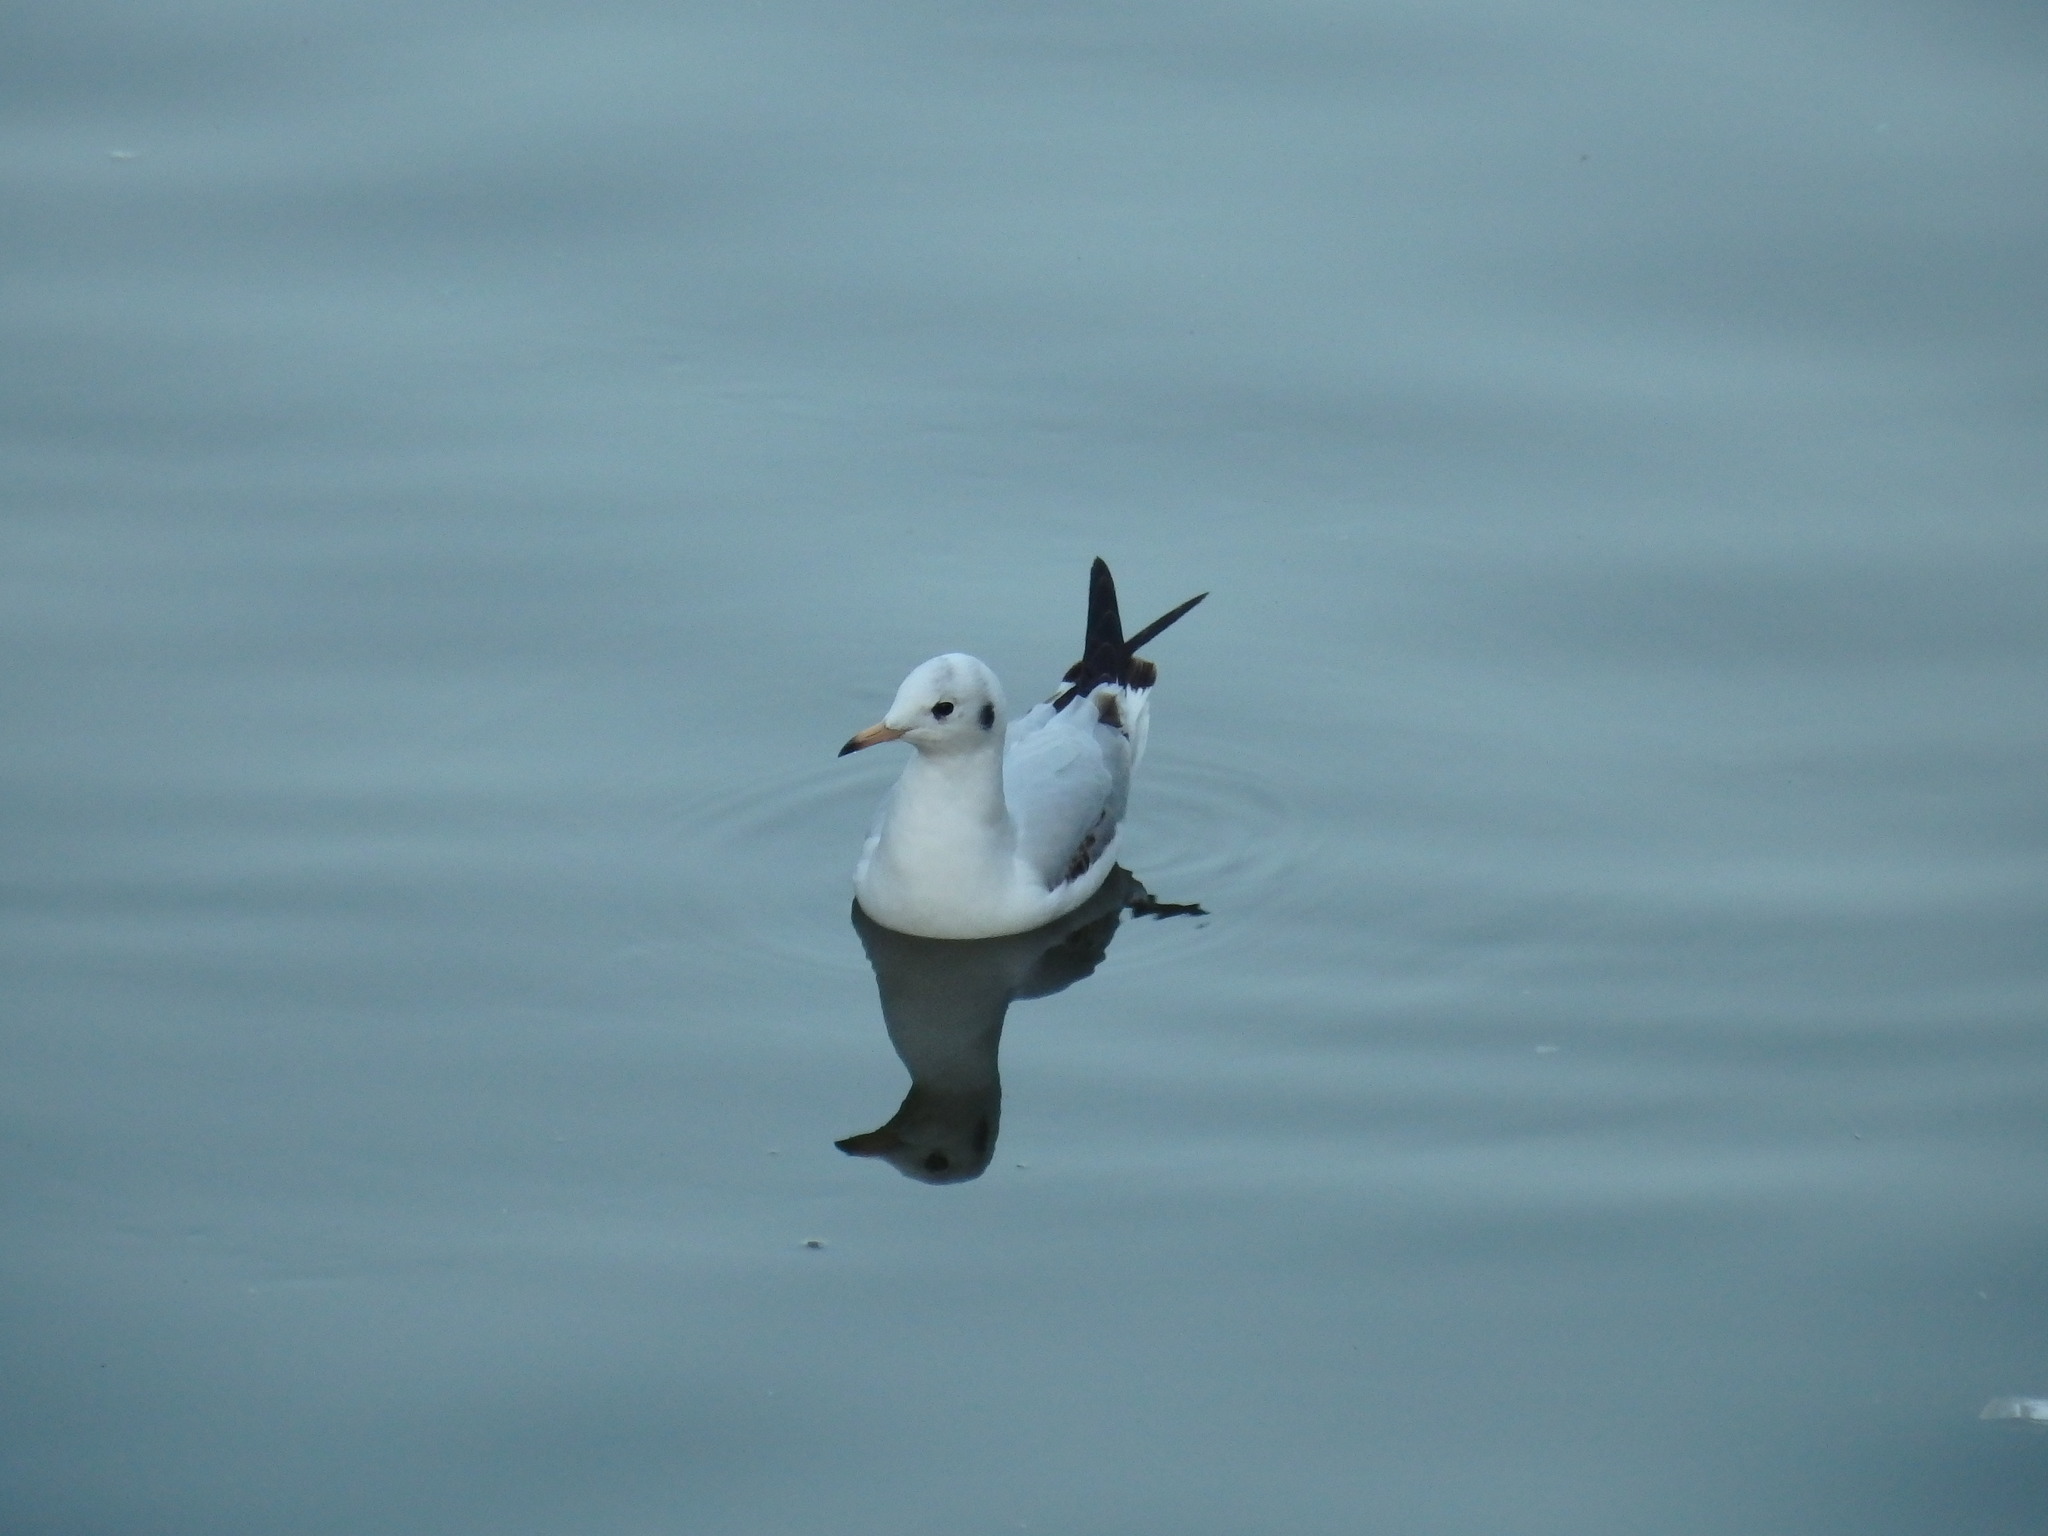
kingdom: Animalia
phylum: Chordata
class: Aves
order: Charadriiformes
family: Laridae
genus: Chroicocephalus
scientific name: Chroicocephalus ridibundus
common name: Black-headed gull
